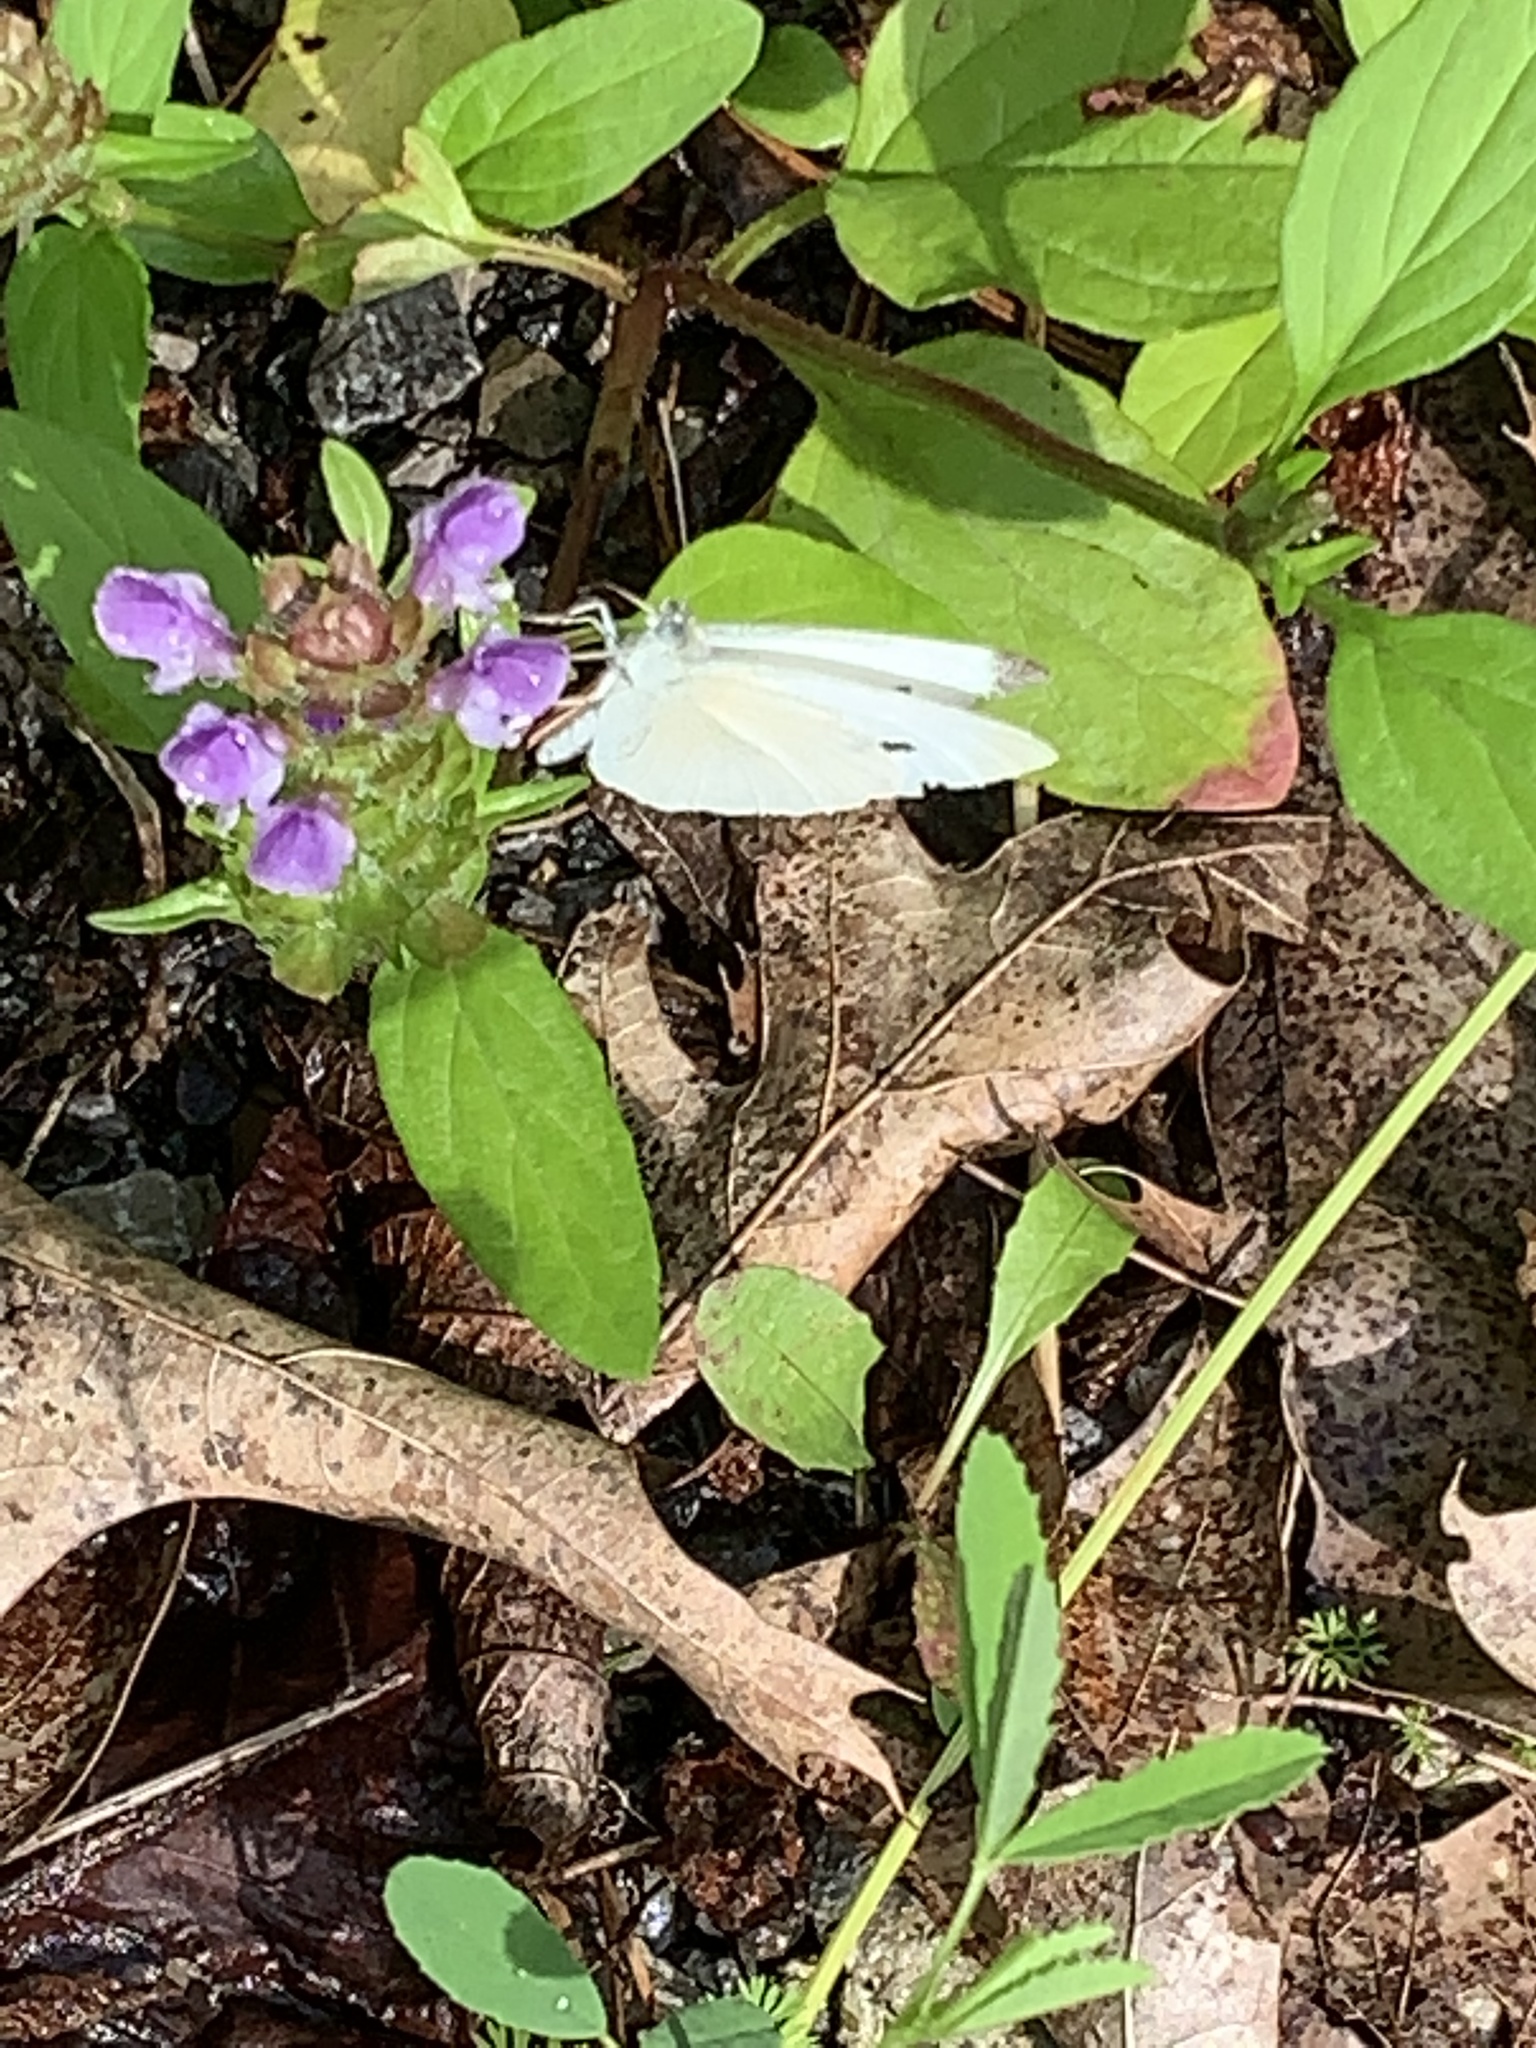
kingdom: Plantae
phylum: Tracheophyta
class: Magnoliopsida
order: Lamiales
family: Lamiaceae
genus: Prunella
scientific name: Prunella vulgaris
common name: Heal-all
